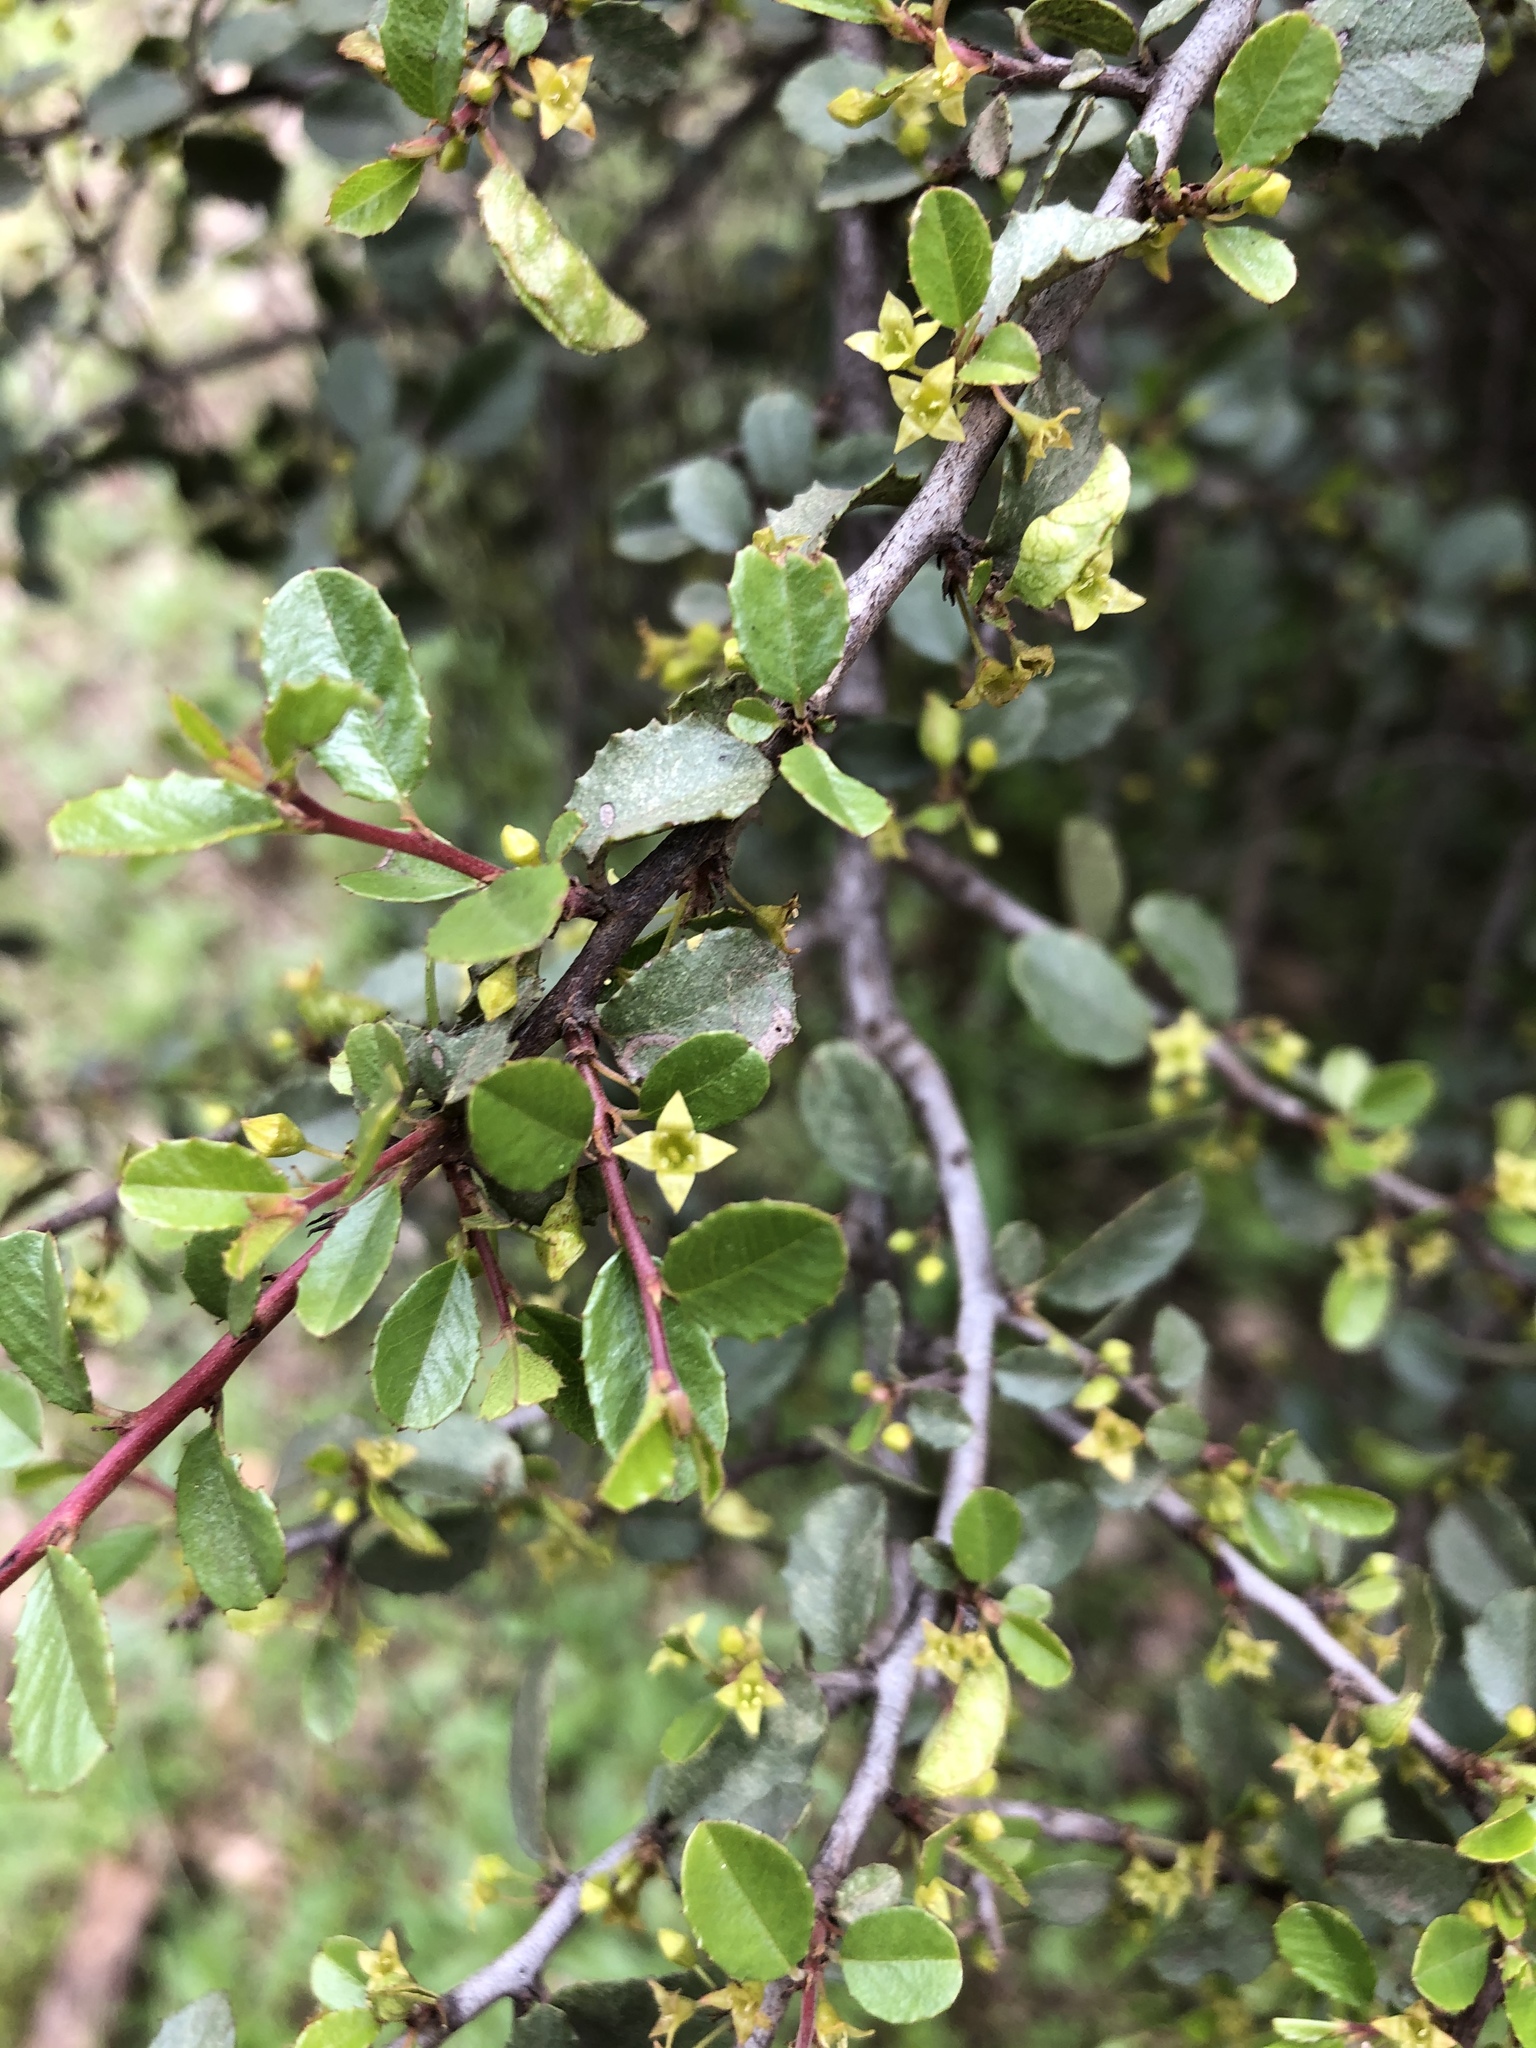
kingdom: Plantae
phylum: Tracheophyta
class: Magnoliopsida
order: Rosales
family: Rhamnaceae
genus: Endotropis
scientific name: Endotropis crocea
